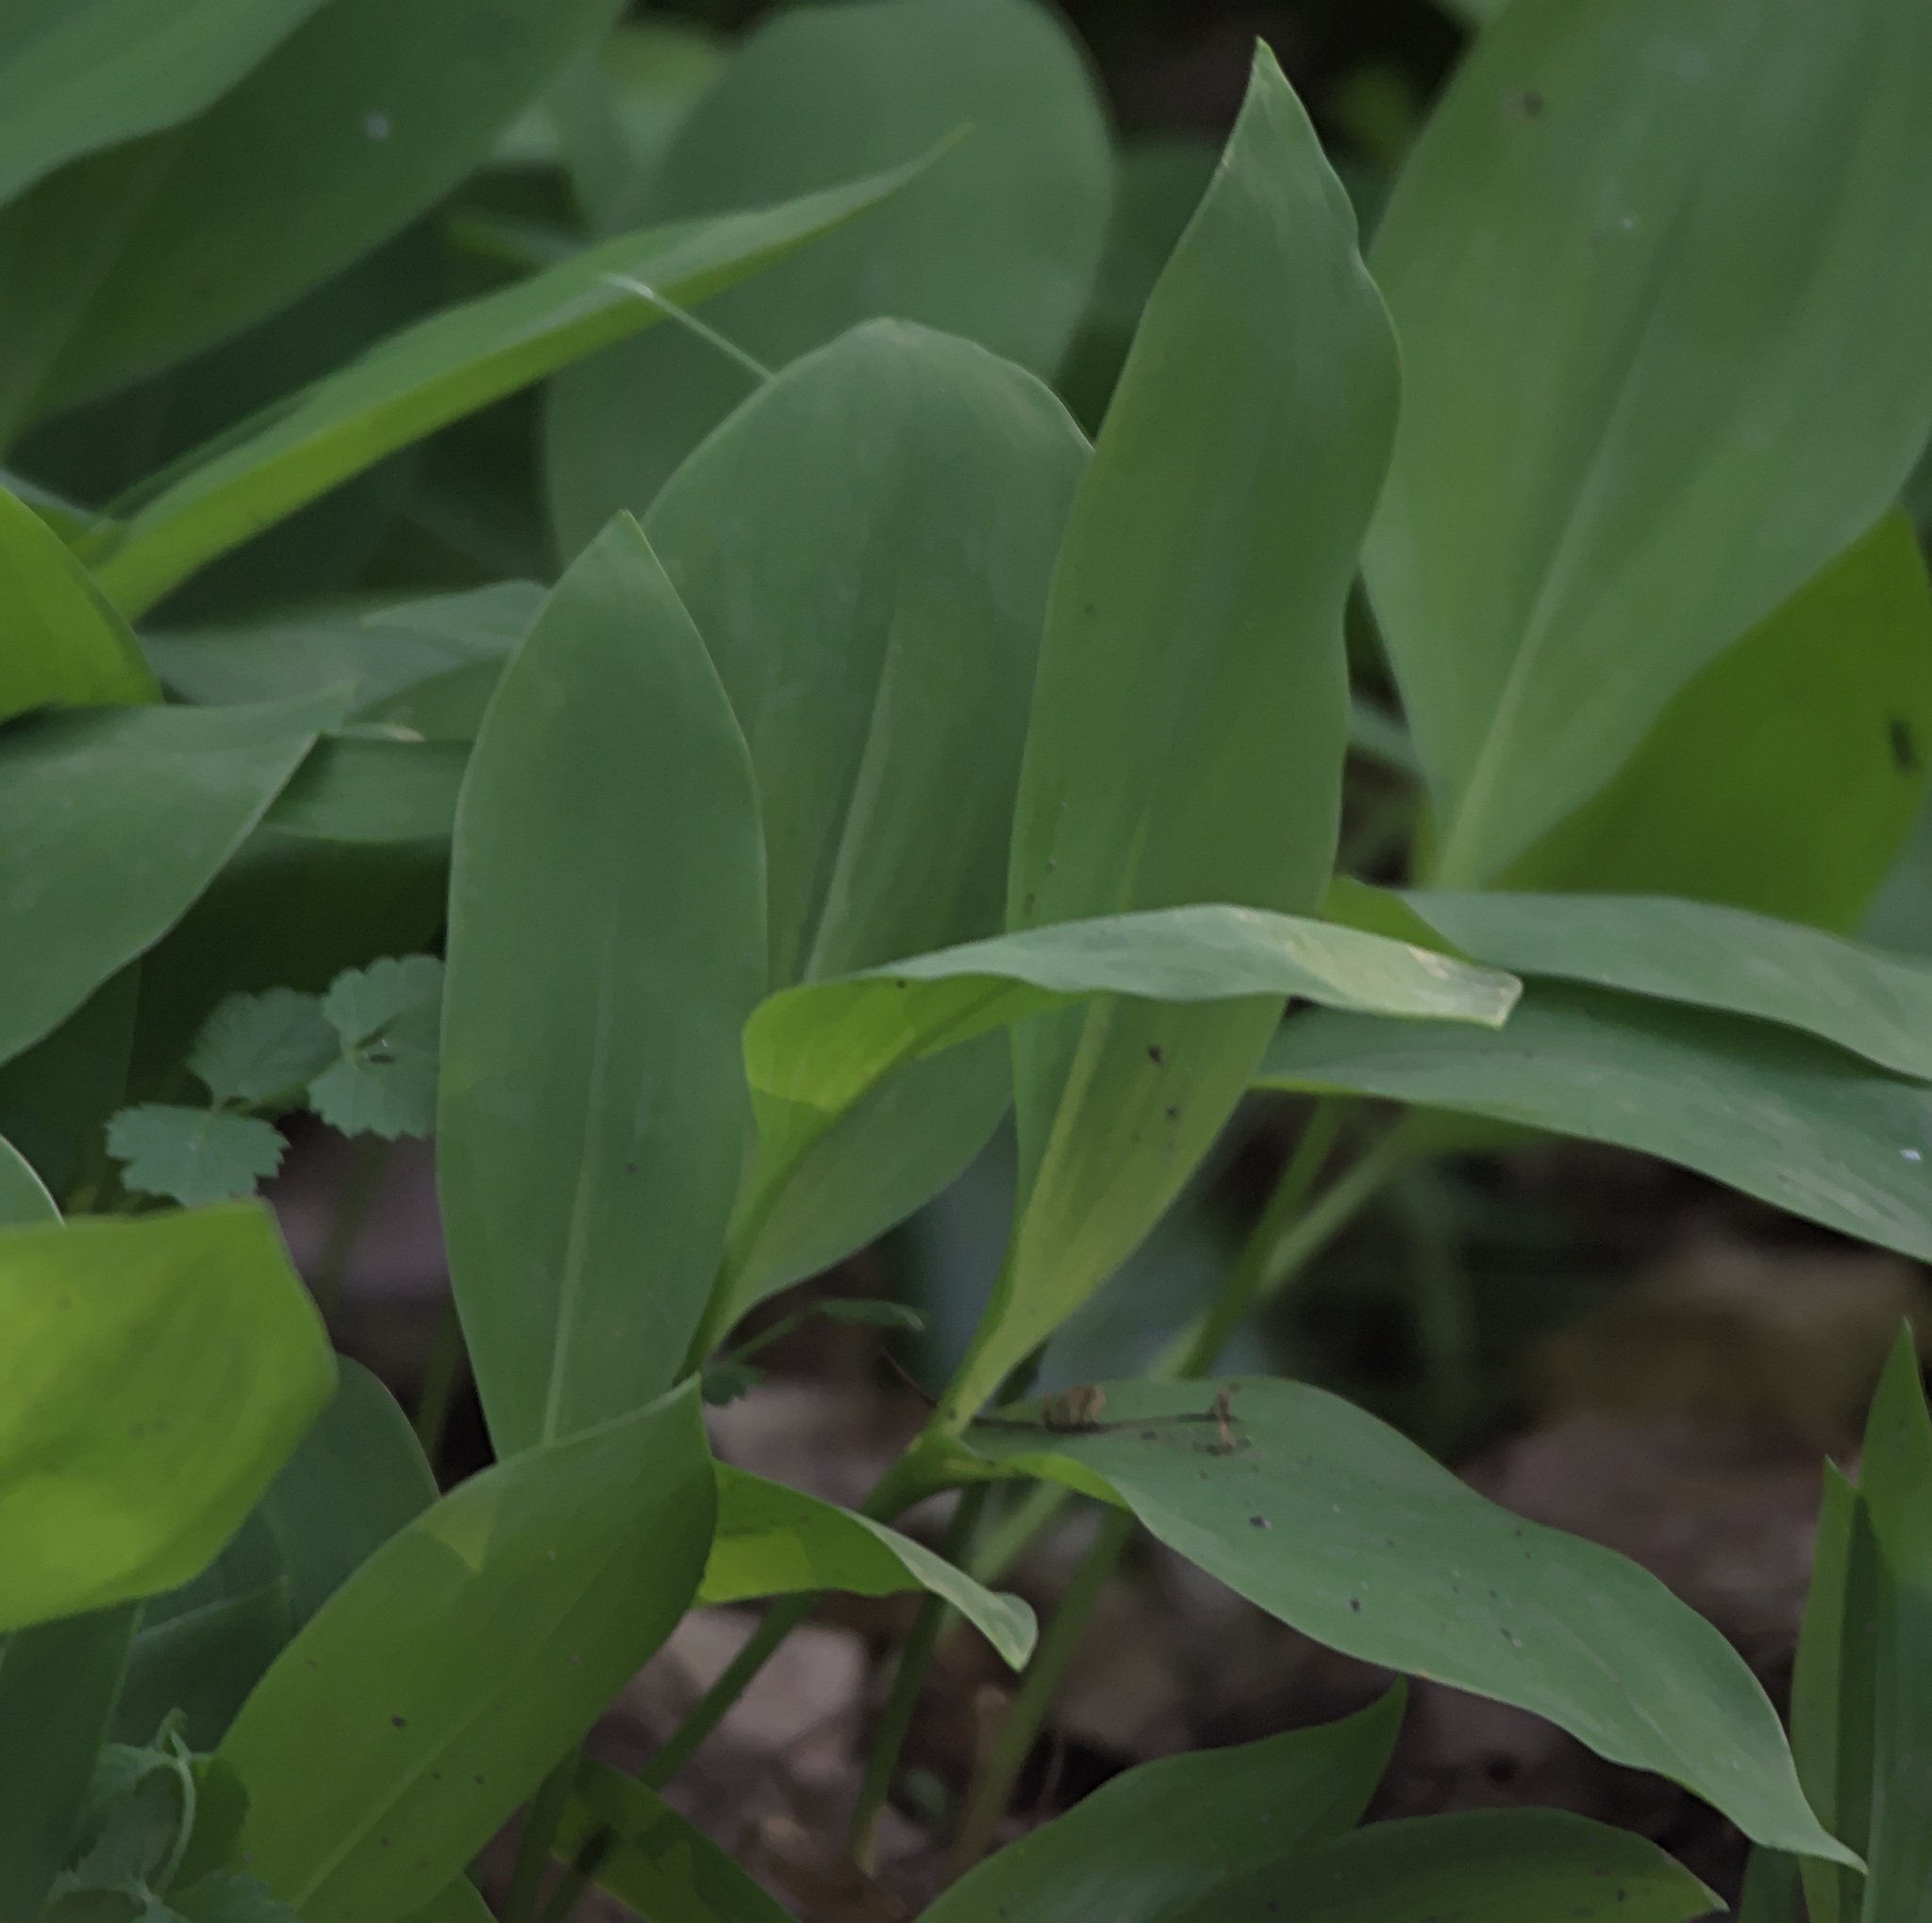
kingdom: Plantae
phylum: Tracheophyta
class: Liliopsida
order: Asparagales
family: Asparagaceae
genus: Convallaria
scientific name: Convallaria majalis
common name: Lily-of-the-valley
